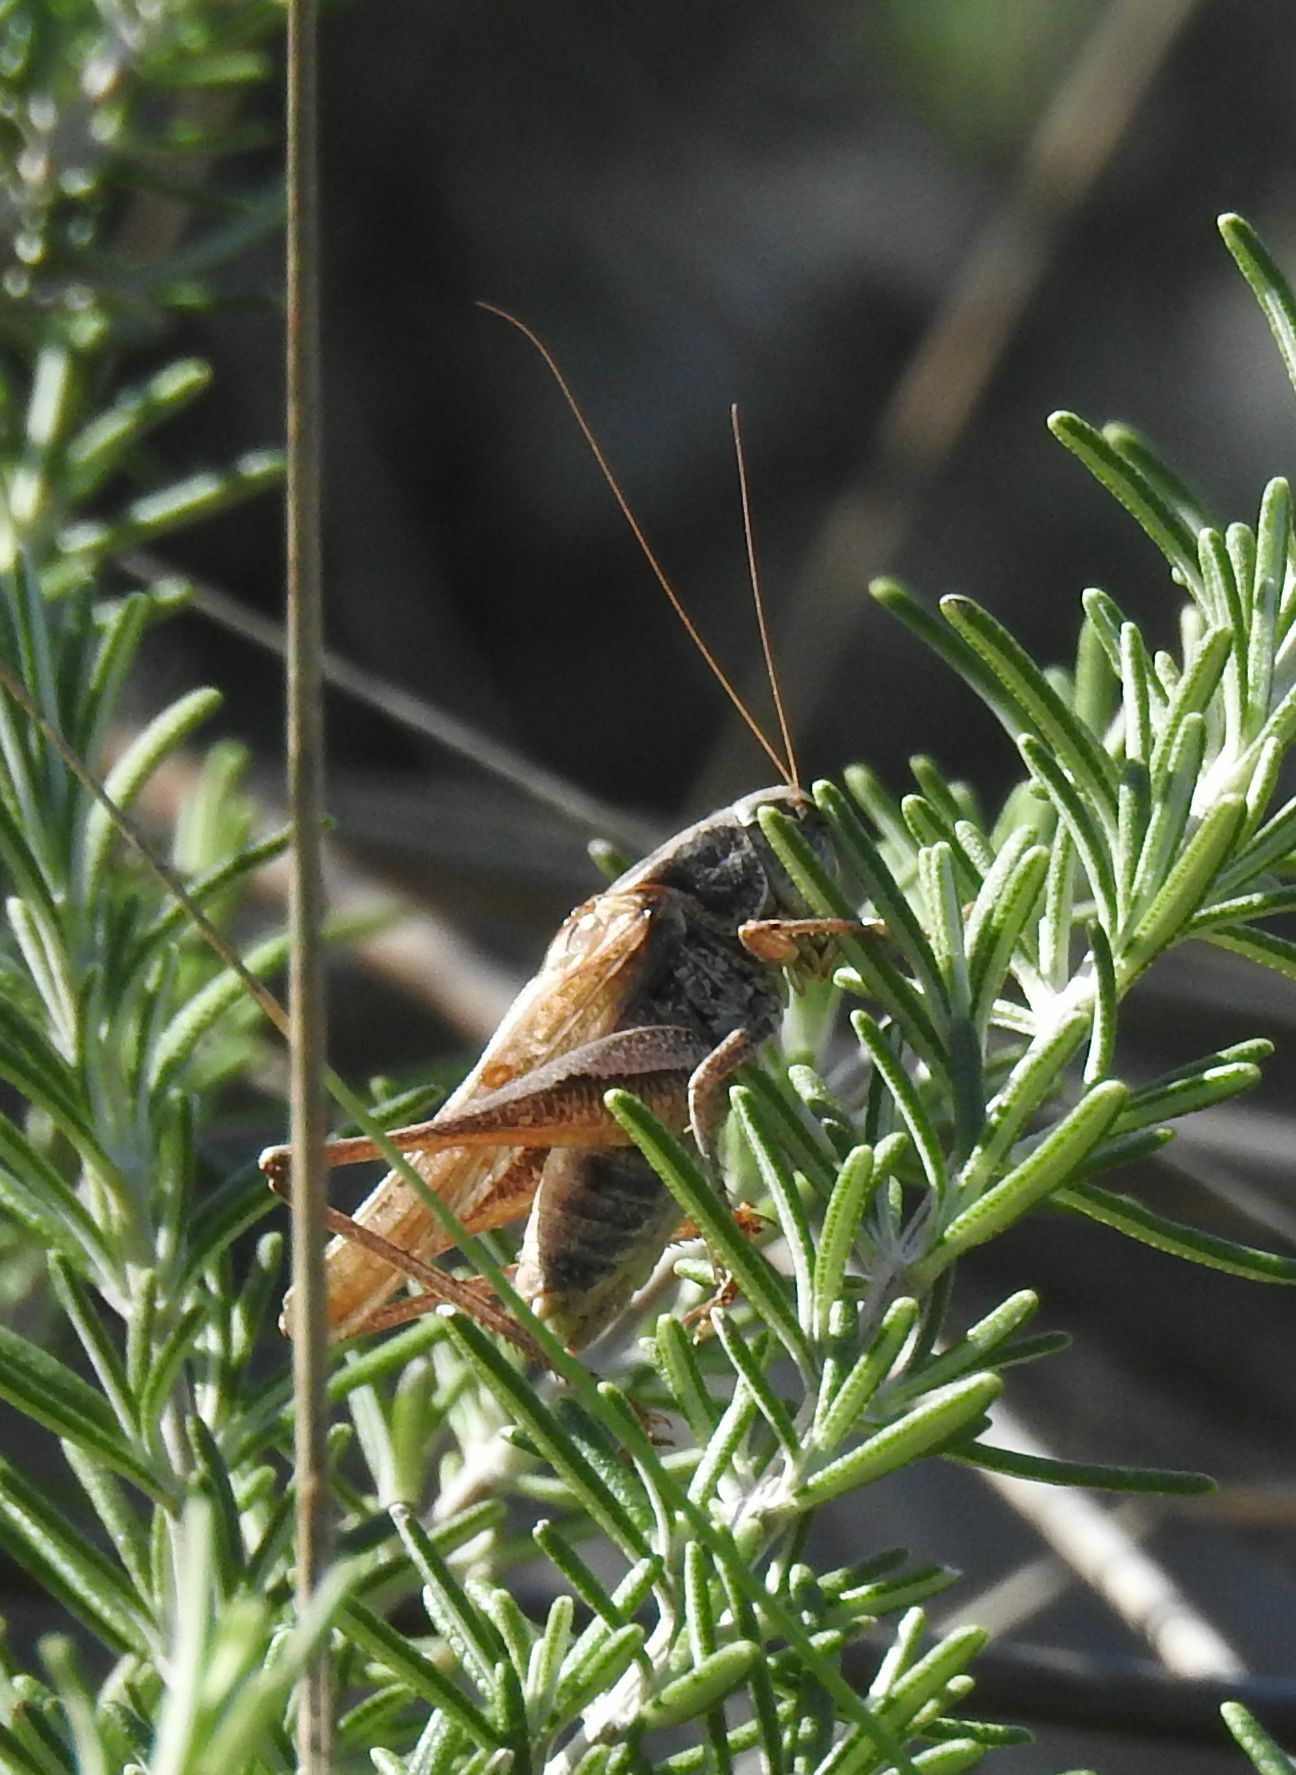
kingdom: Animalia
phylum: Arthropoda
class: Insecta
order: Orthoptera
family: Tettigoniidae
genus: Platycleis
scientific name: Platycleis albopunctata
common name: Grey bush-cricket
